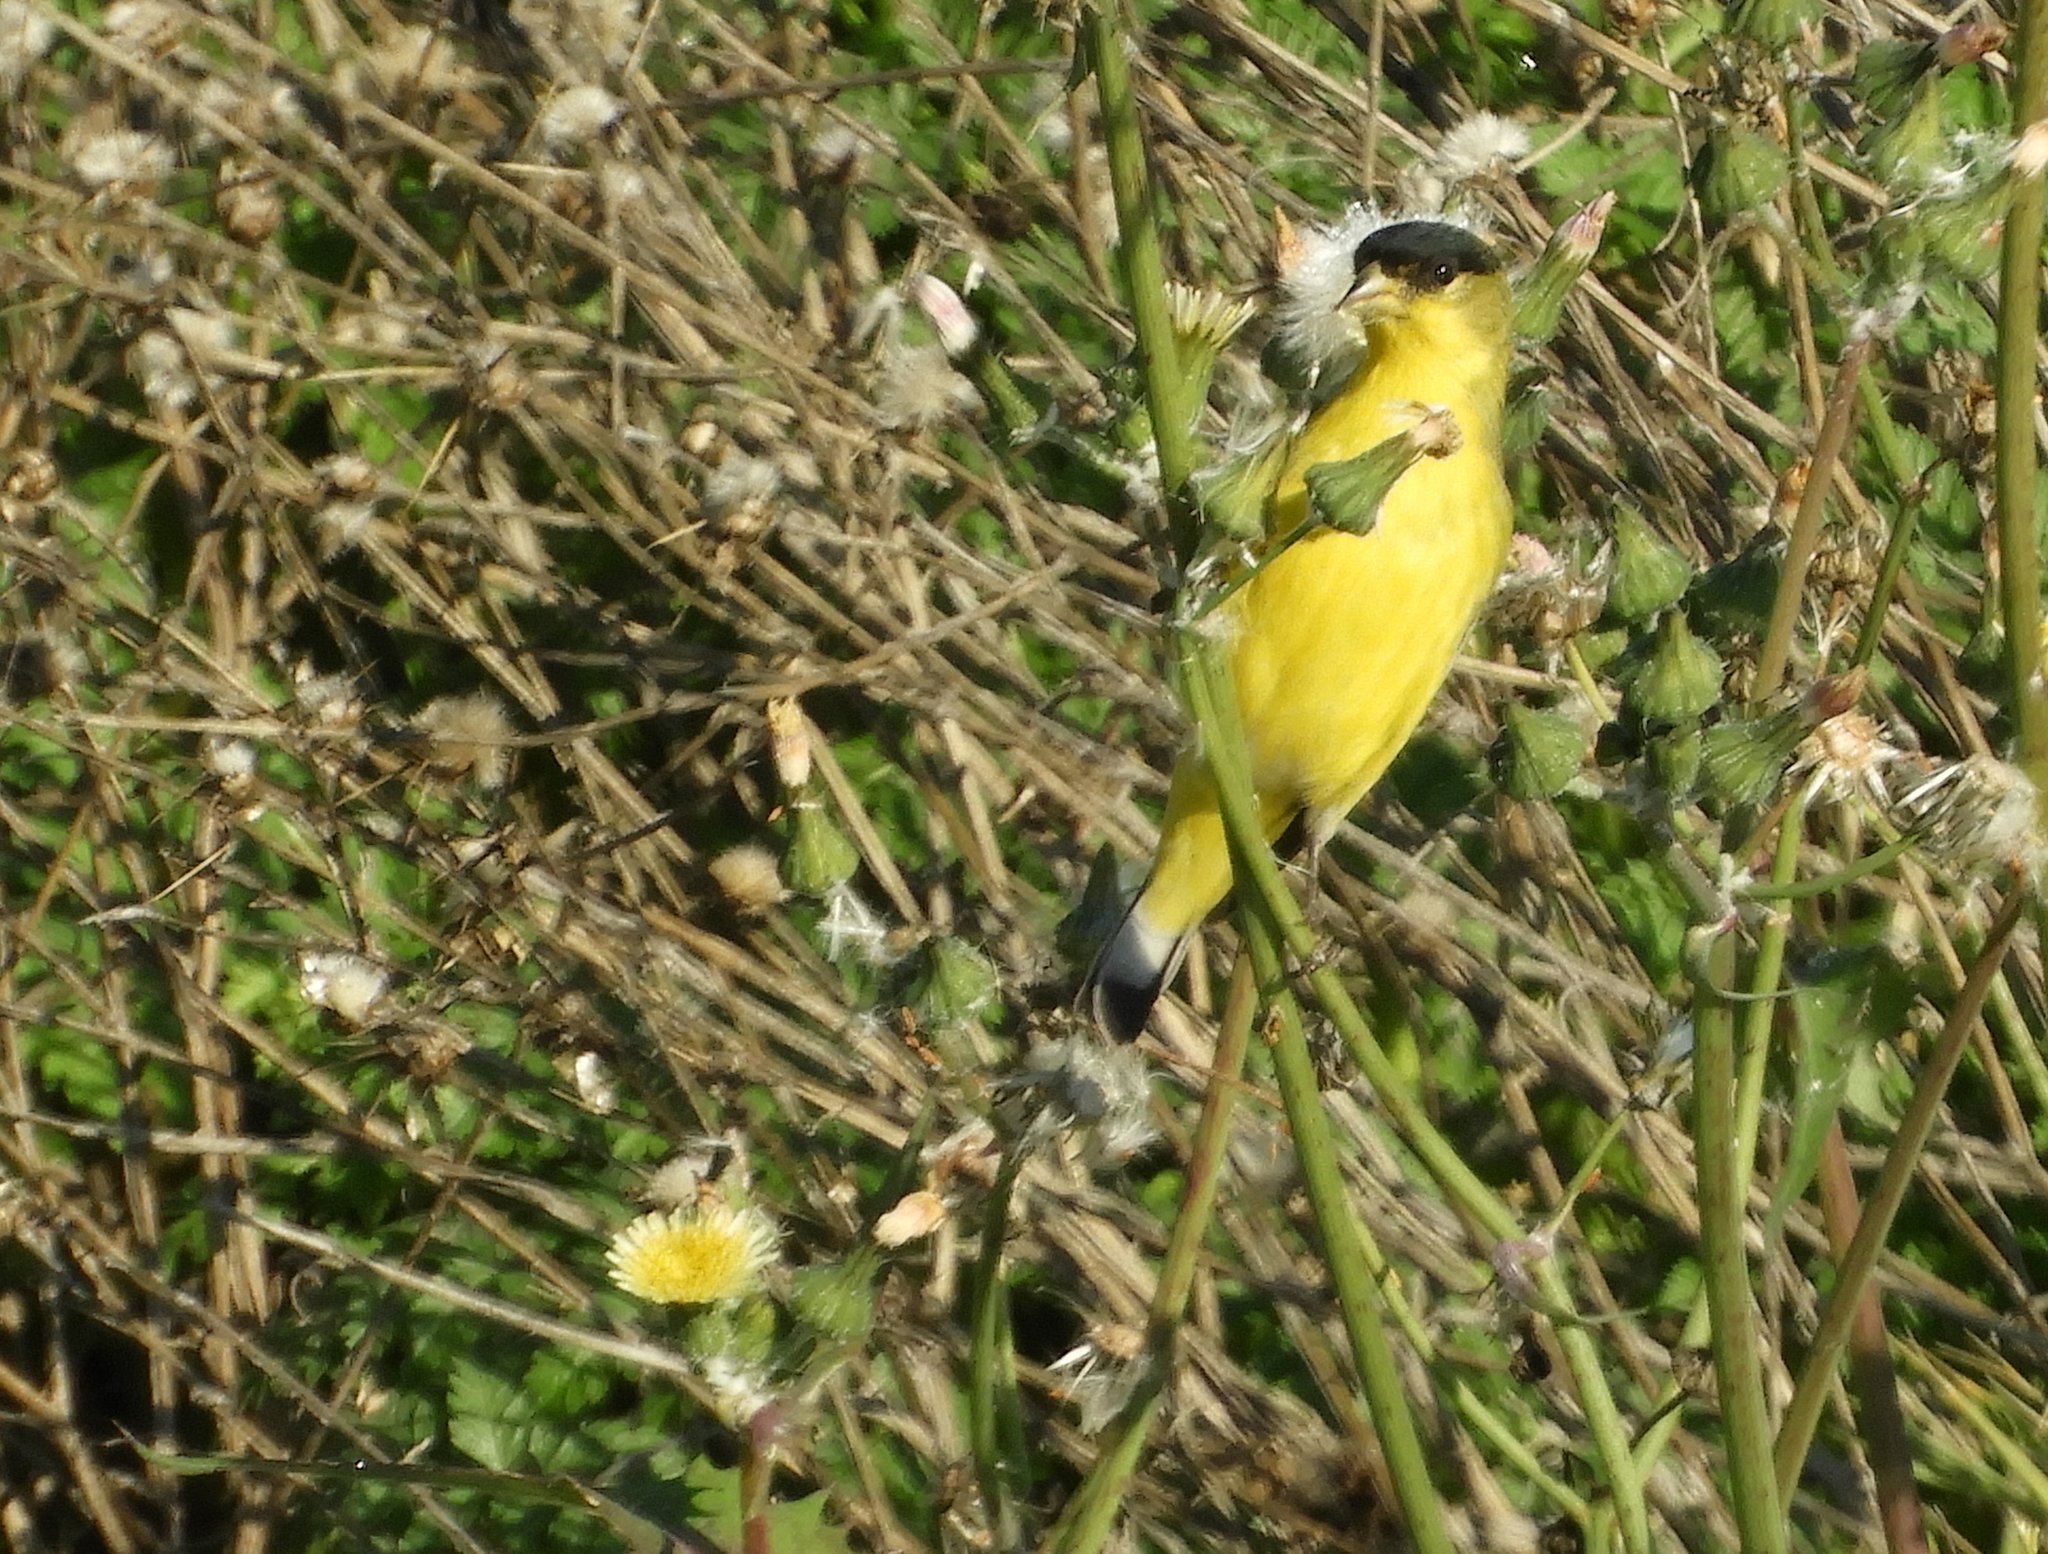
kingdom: Animalia
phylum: Chordata
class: Aves
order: Passeriformes
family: Fringillidae
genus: Spinus
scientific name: Spinus psaltria
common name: Lesser goldfinch
